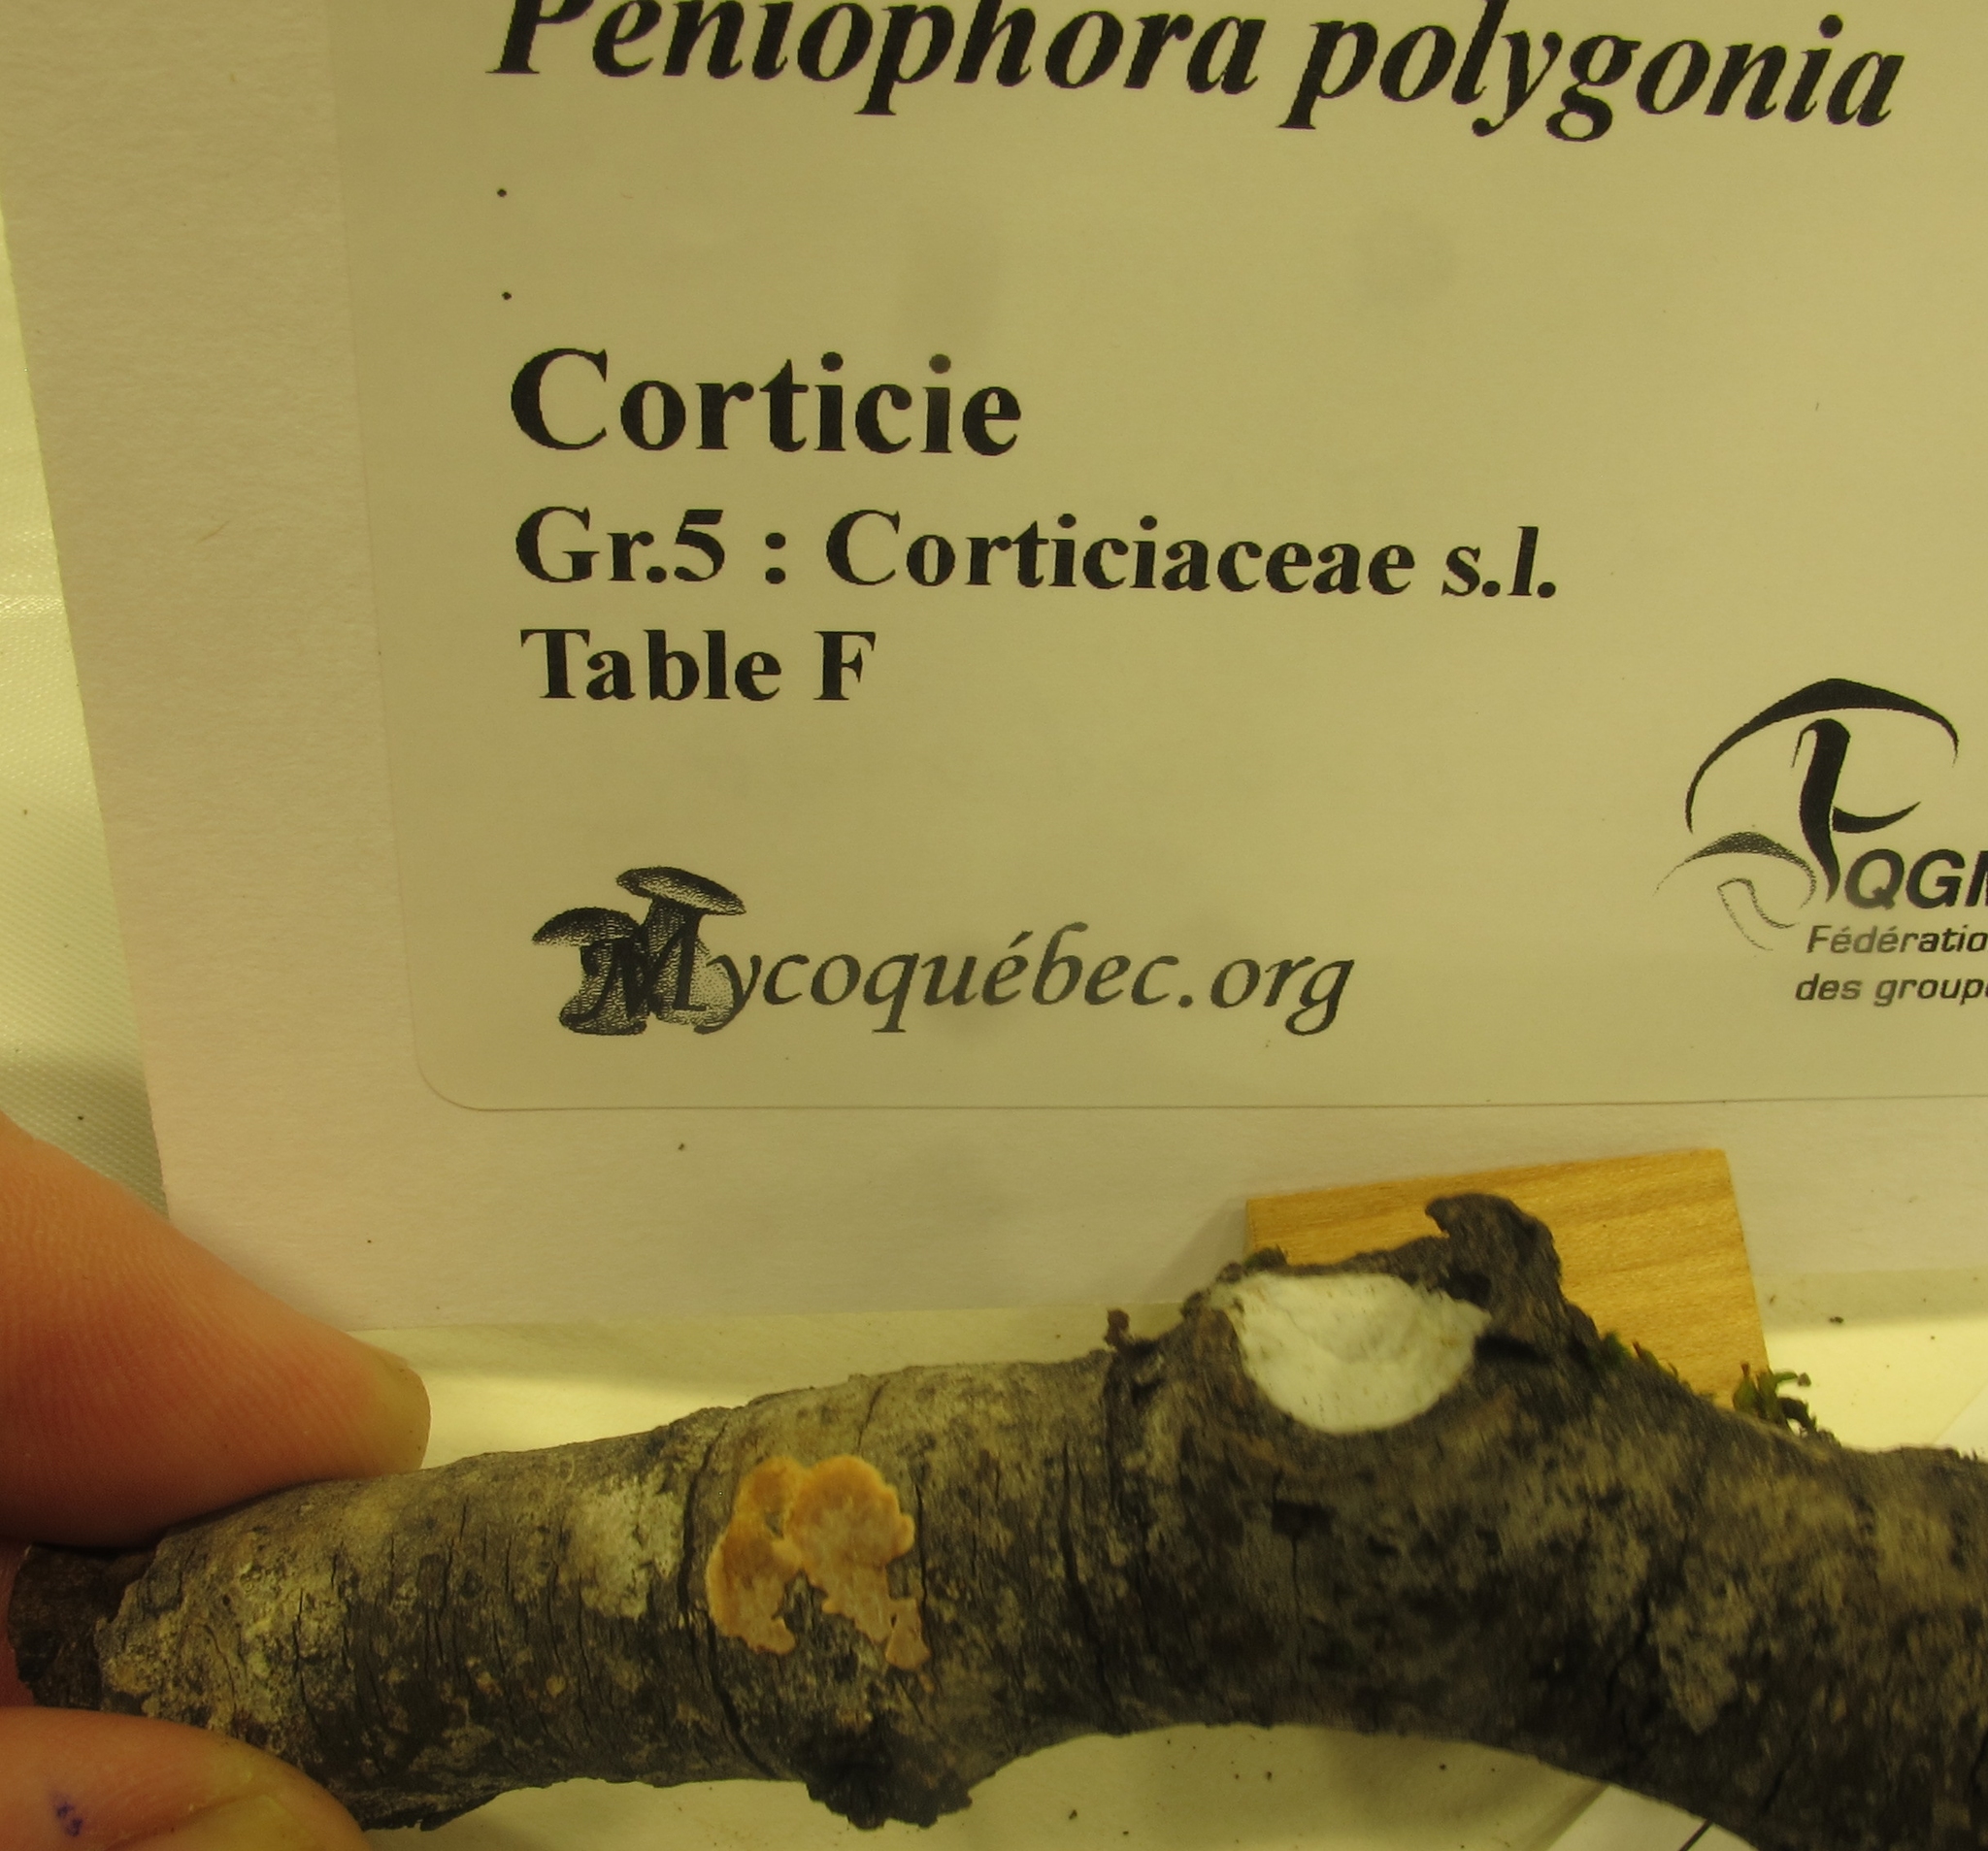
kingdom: Fungi
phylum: Basidiomycota
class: Agaricomycetes
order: Russulales
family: Peniophoraceae
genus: Peniophora
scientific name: Peniophora polygonia
